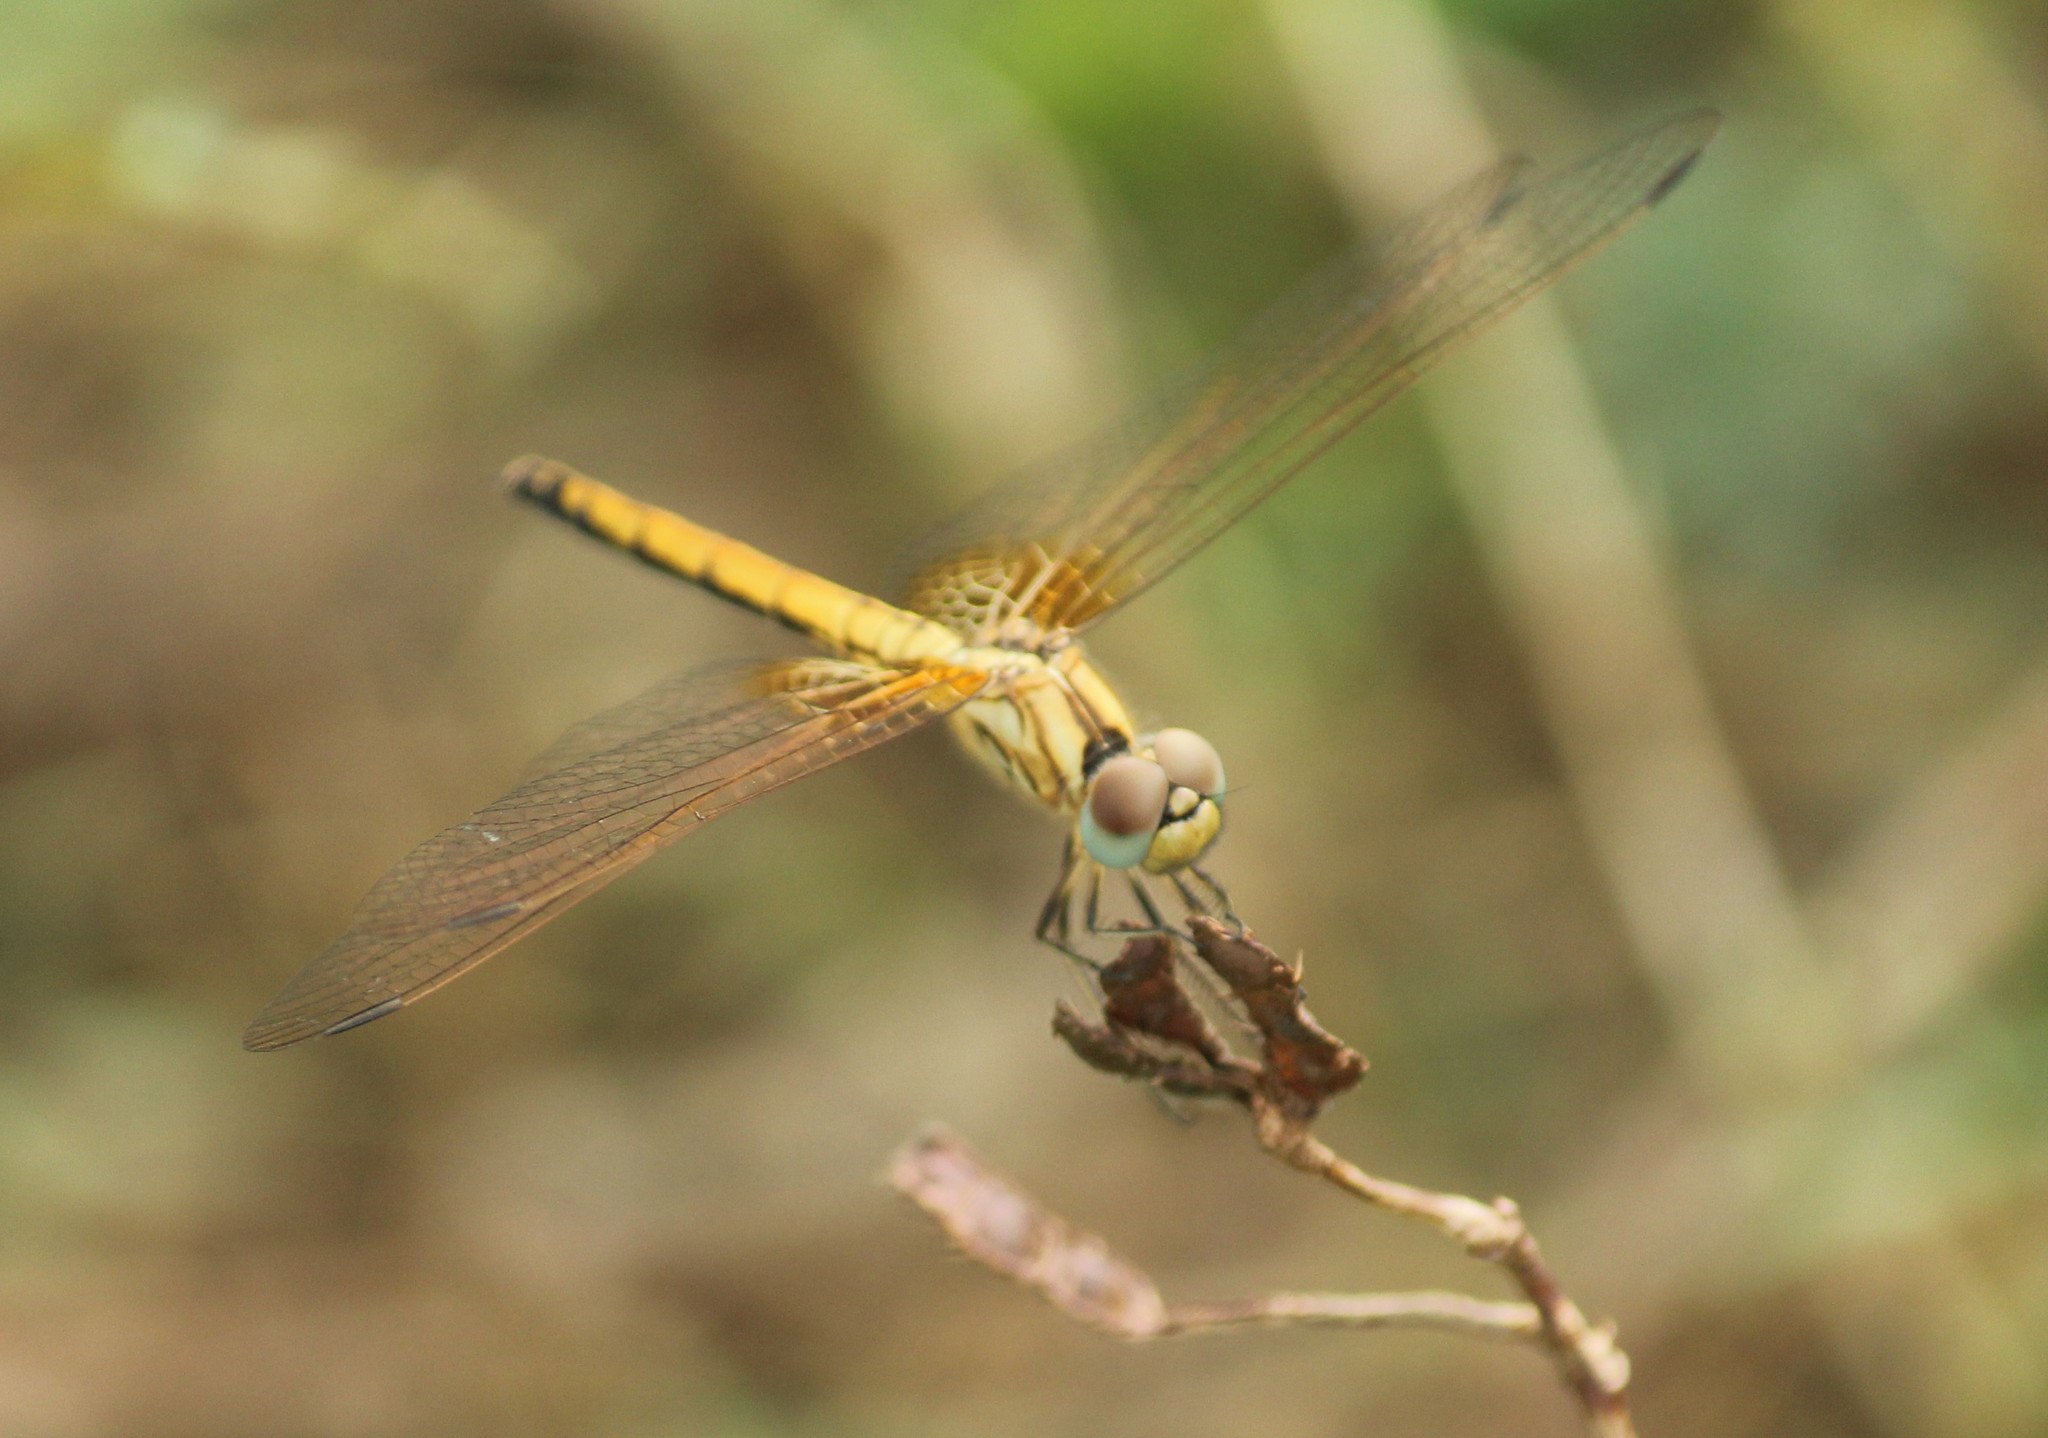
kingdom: Animalia
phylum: Arthropoda
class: Insecta
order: Odonata
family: Libellulidae
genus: Trithemis
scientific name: Trithemis aurora
